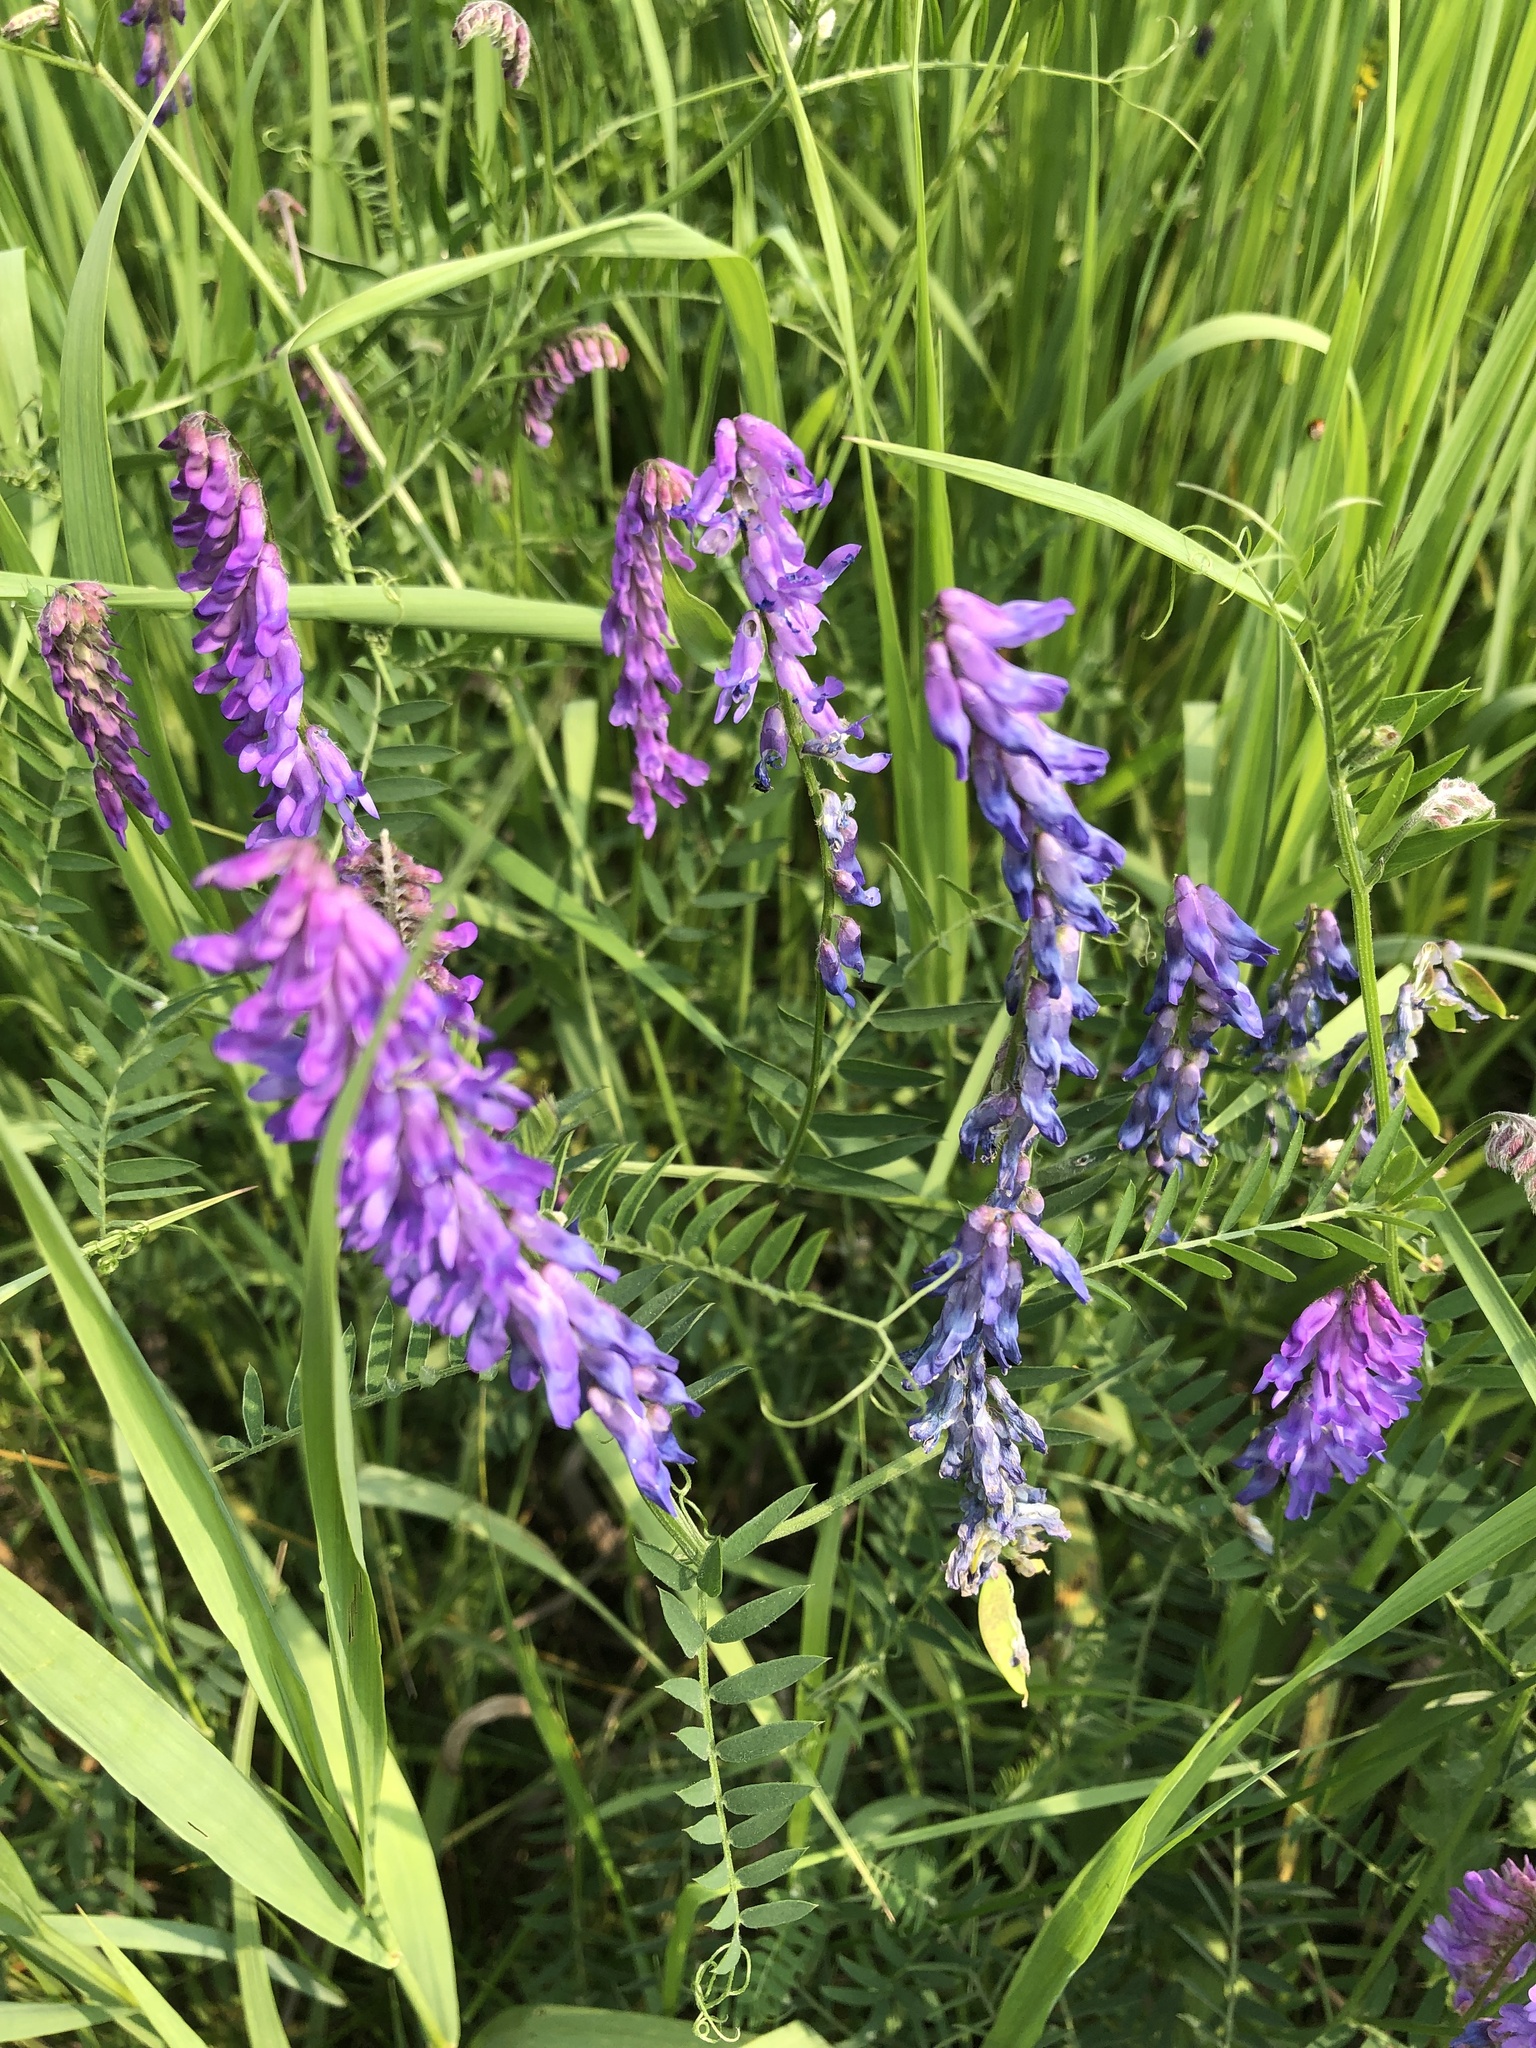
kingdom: Plantae
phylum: Tracheophyta
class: Magnoliopsida
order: Fabales
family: Fabaceae
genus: Vicia
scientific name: Vicia cracca
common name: Bird vetch
